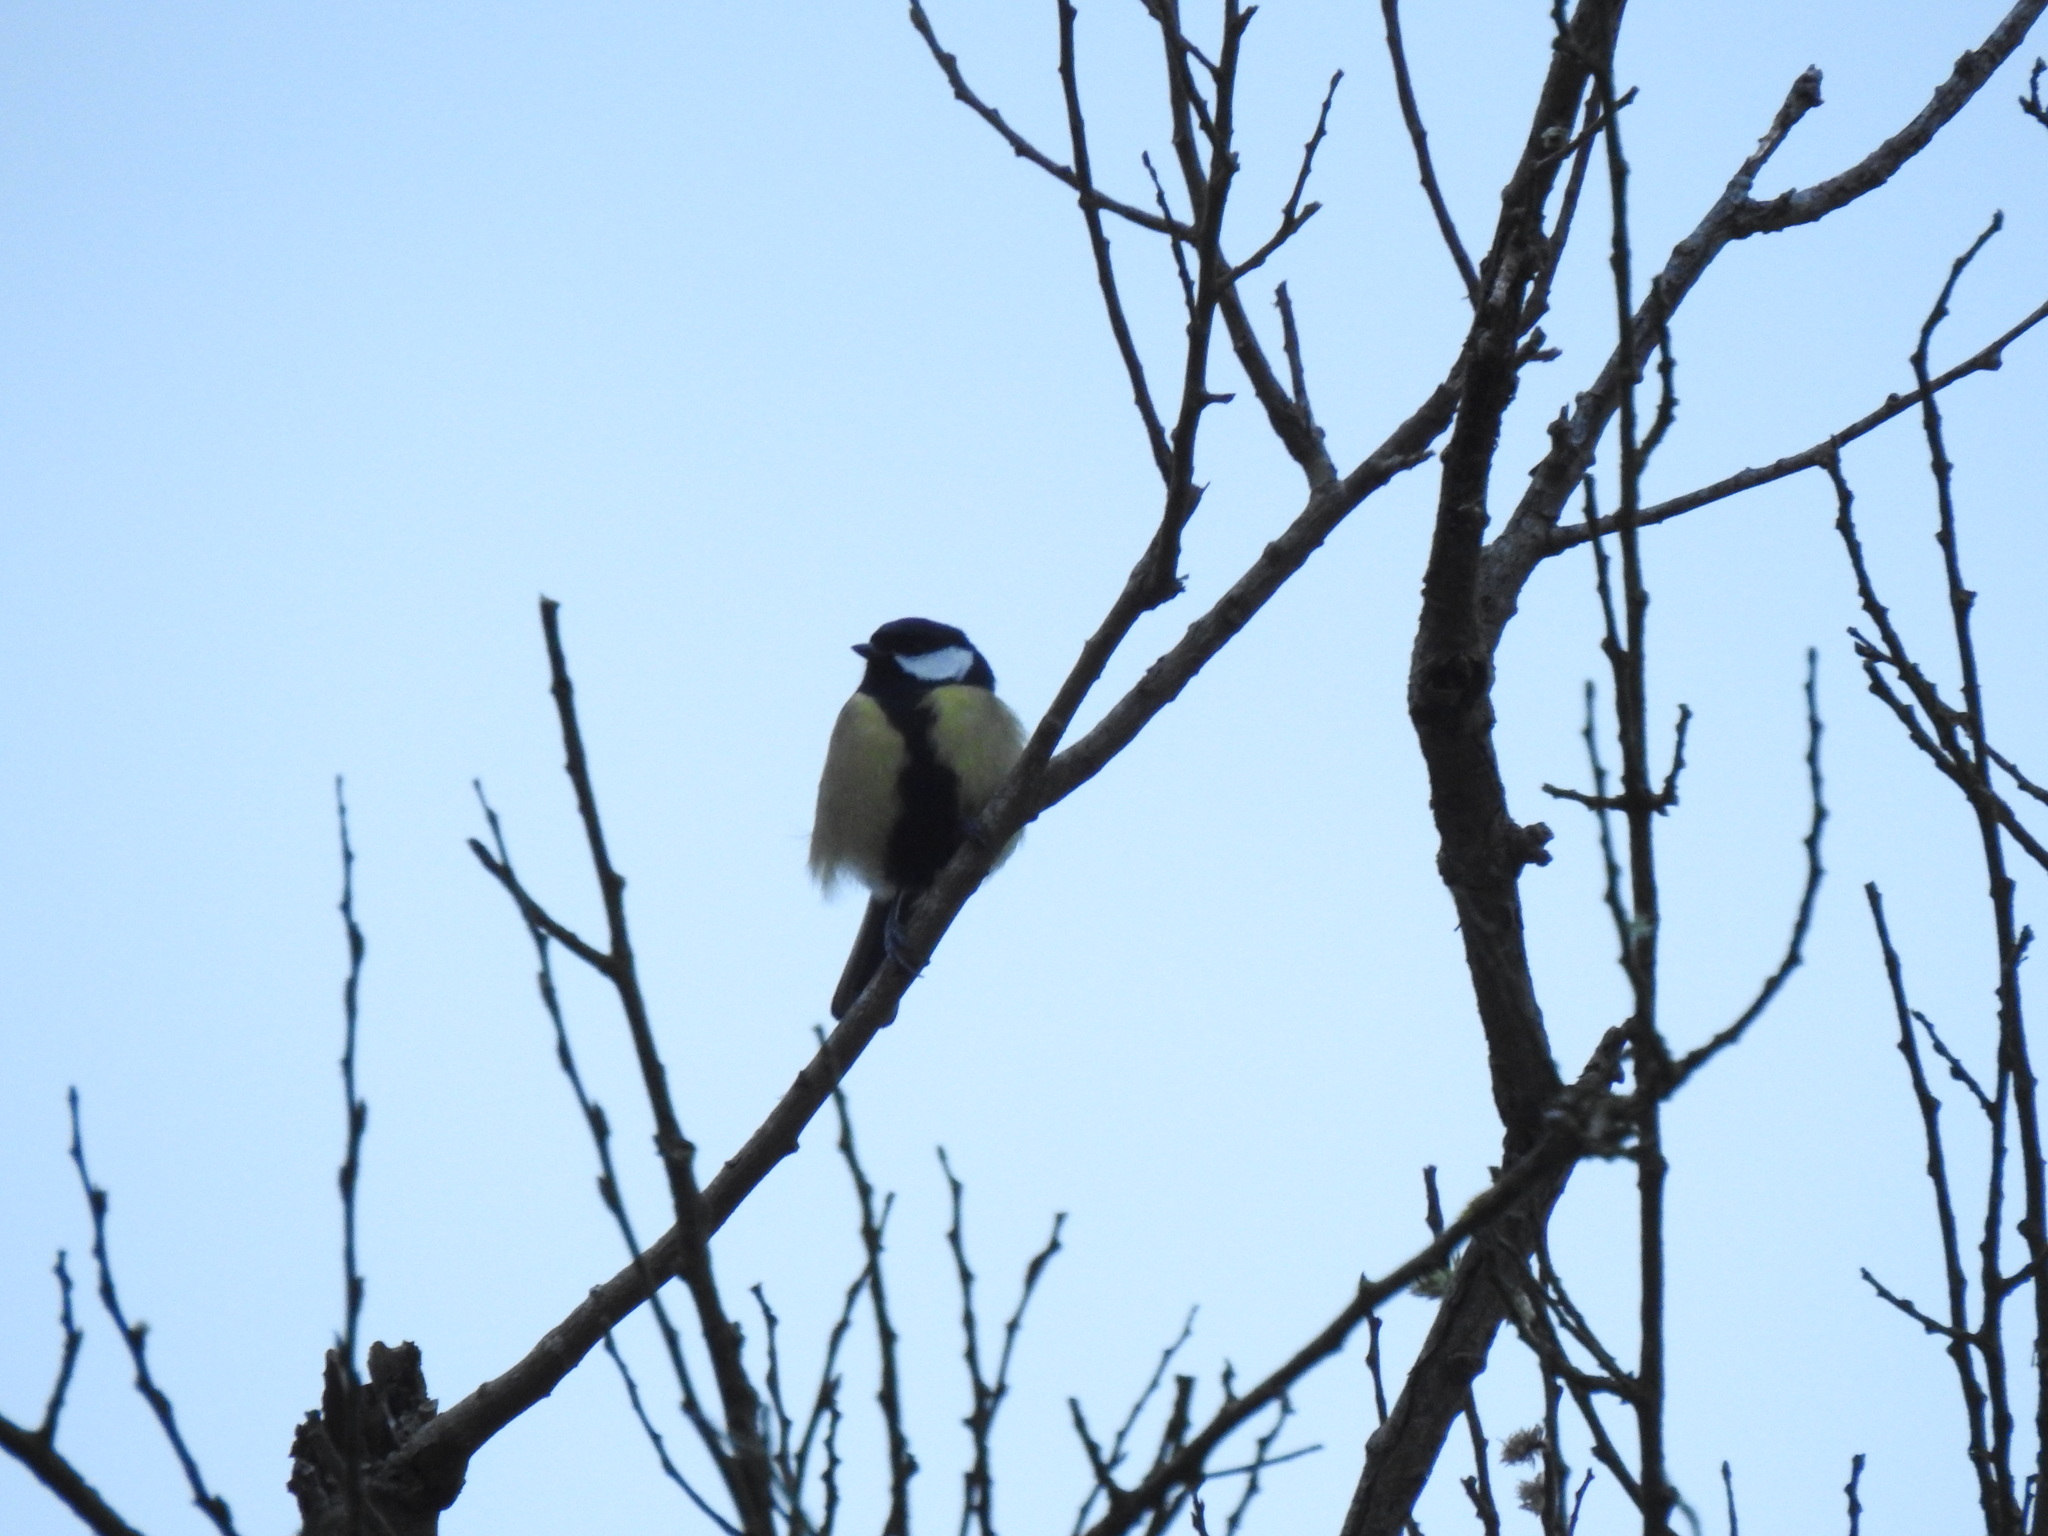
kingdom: Animalia
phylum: Chordata
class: Aves
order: Passeriformes
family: Paridae
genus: Parus
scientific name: Parus major
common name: Great tit
